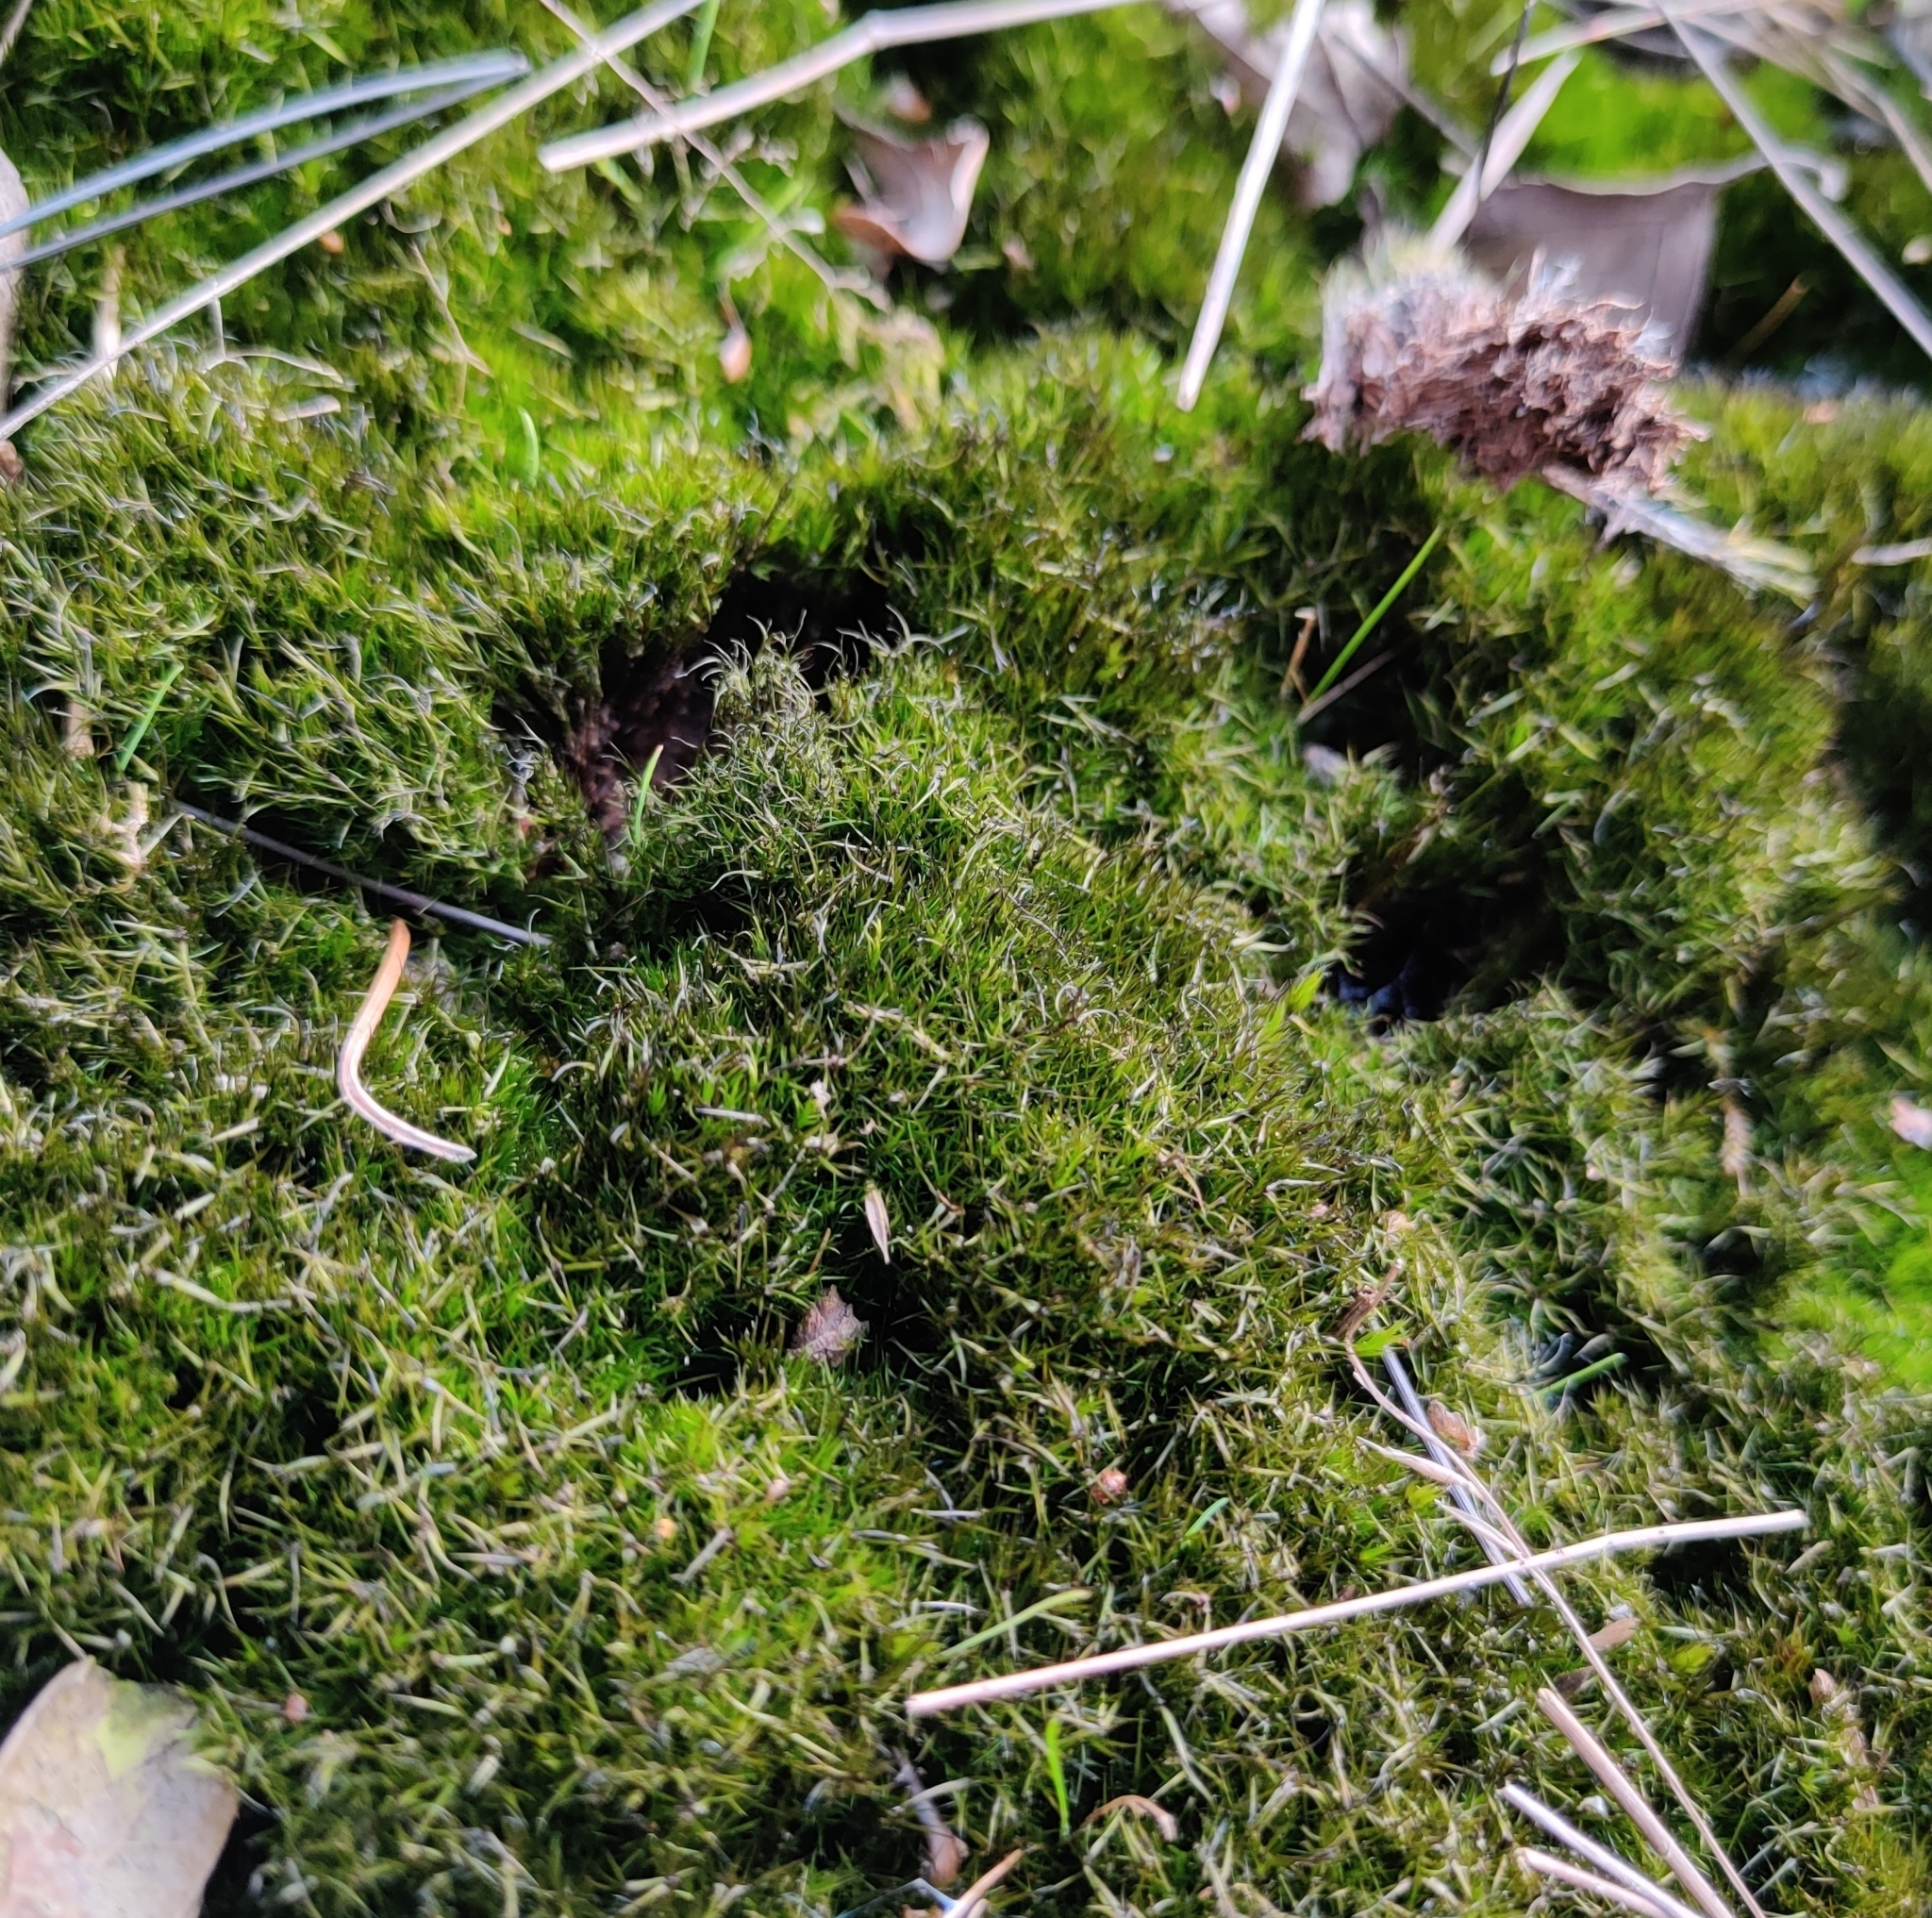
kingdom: Plantae
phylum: Bryophyta
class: Bryopsida
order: Dicranales
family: Leucobryaceae
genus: Campylopus
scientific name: Campylopus introflexus
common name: Heath star moss
